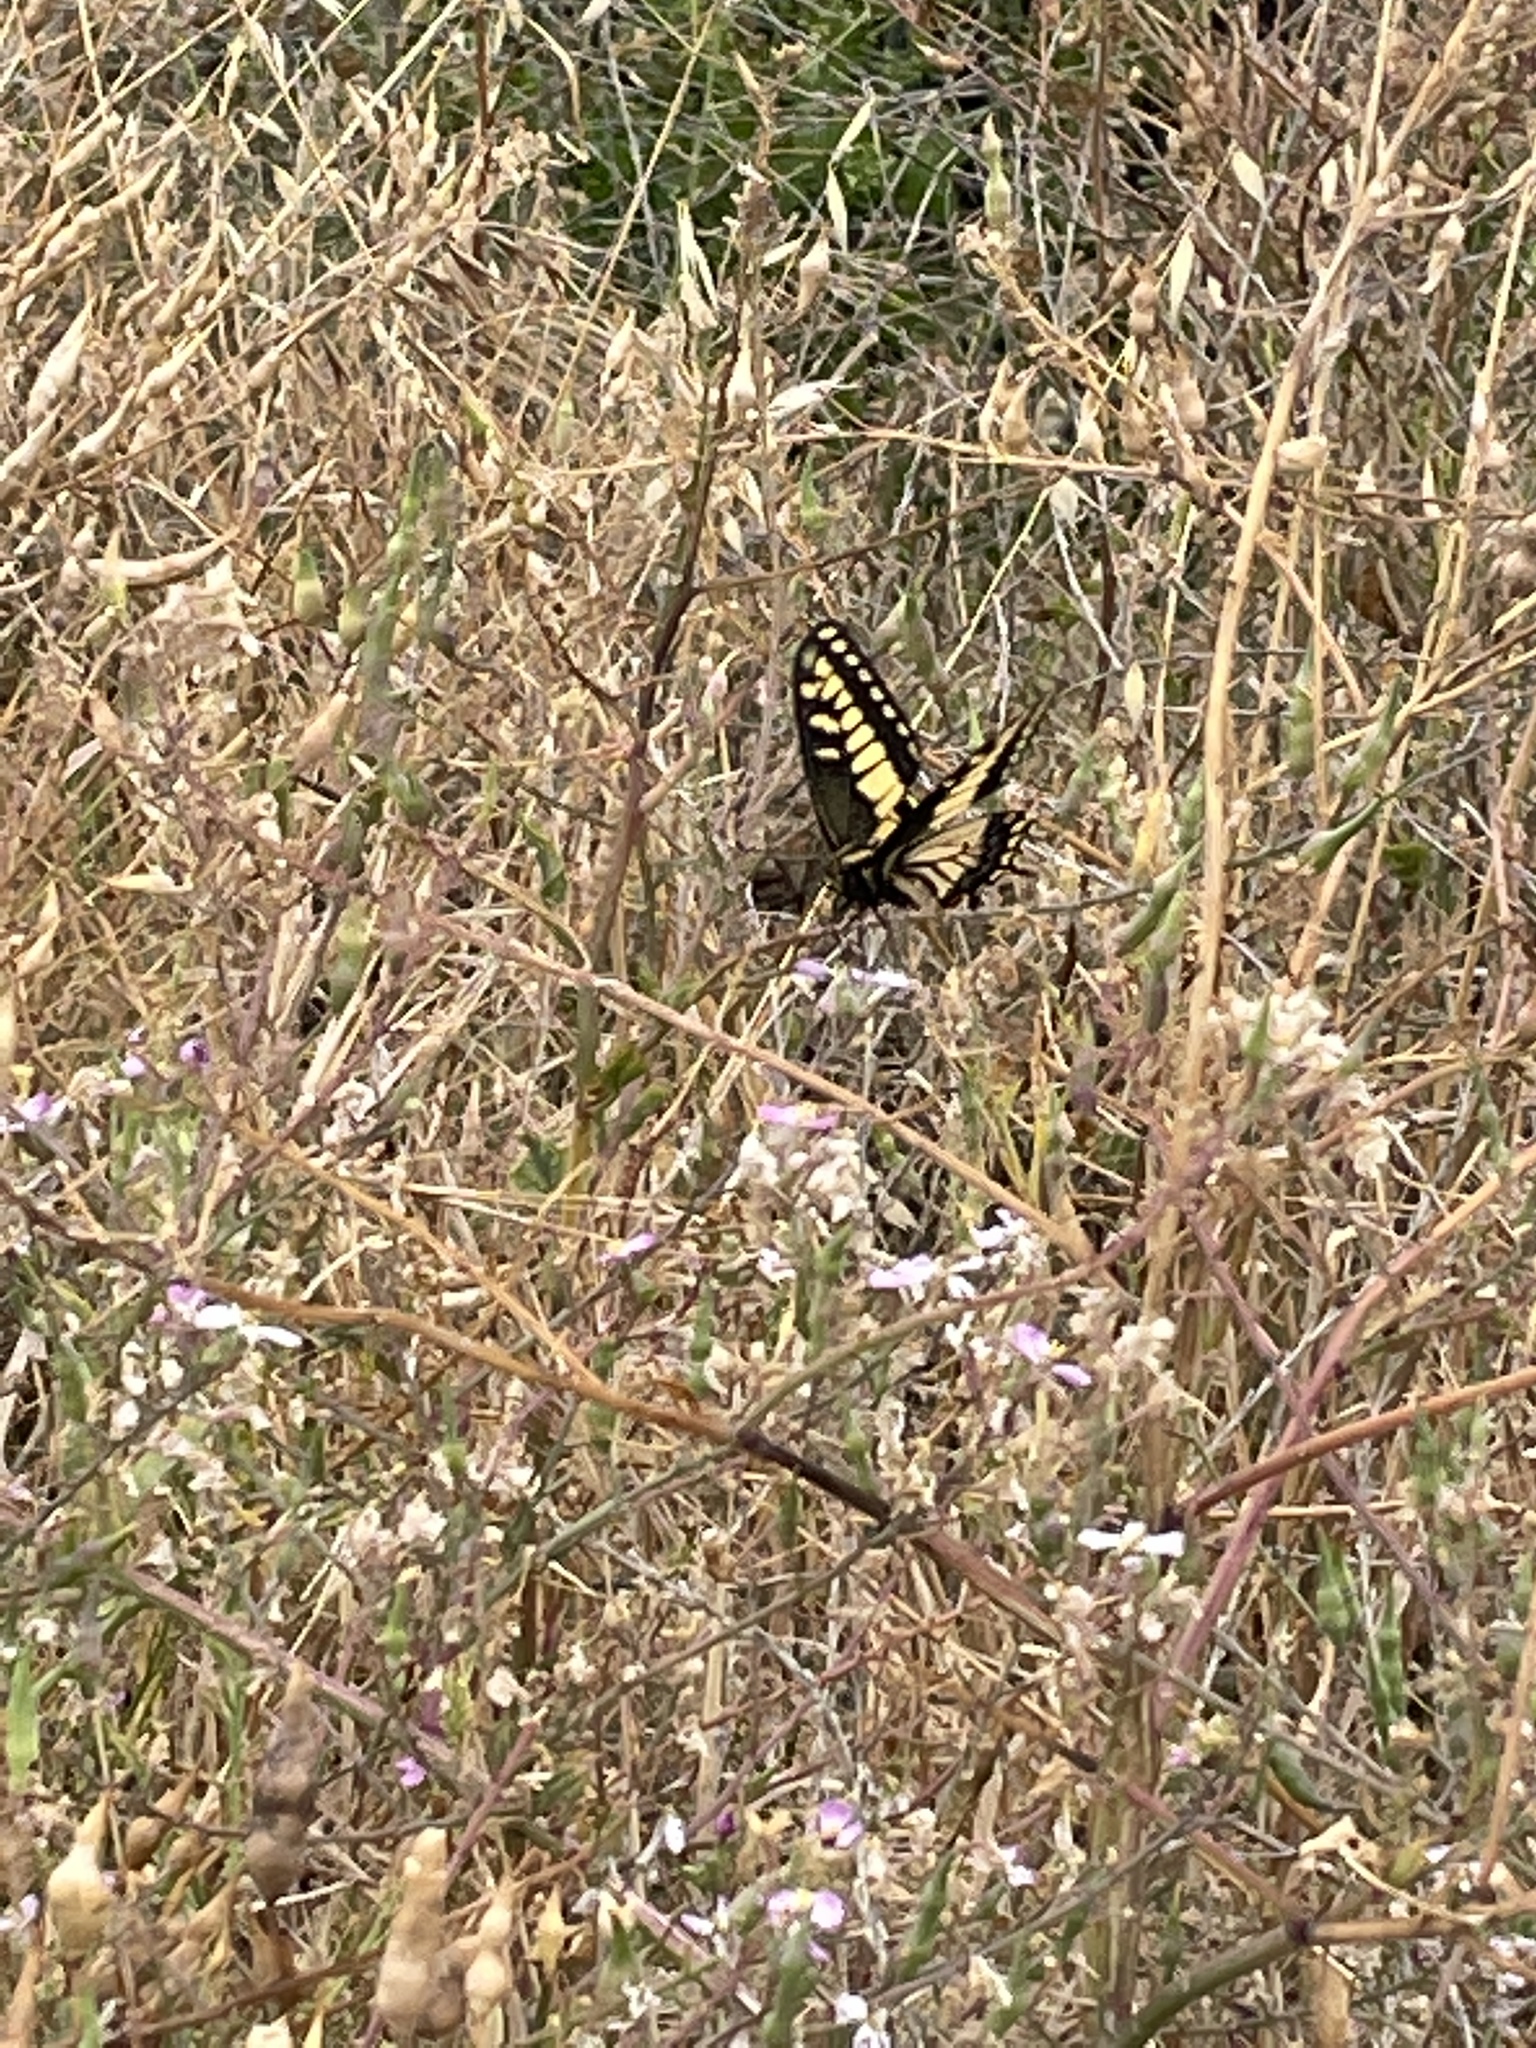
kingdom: Animalia
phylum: Arthropoda
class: Insecta
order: Lepidoptera
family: Papilionidae
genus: Papilio
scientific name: Papilio zelicaon
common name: Anise swallowtail
